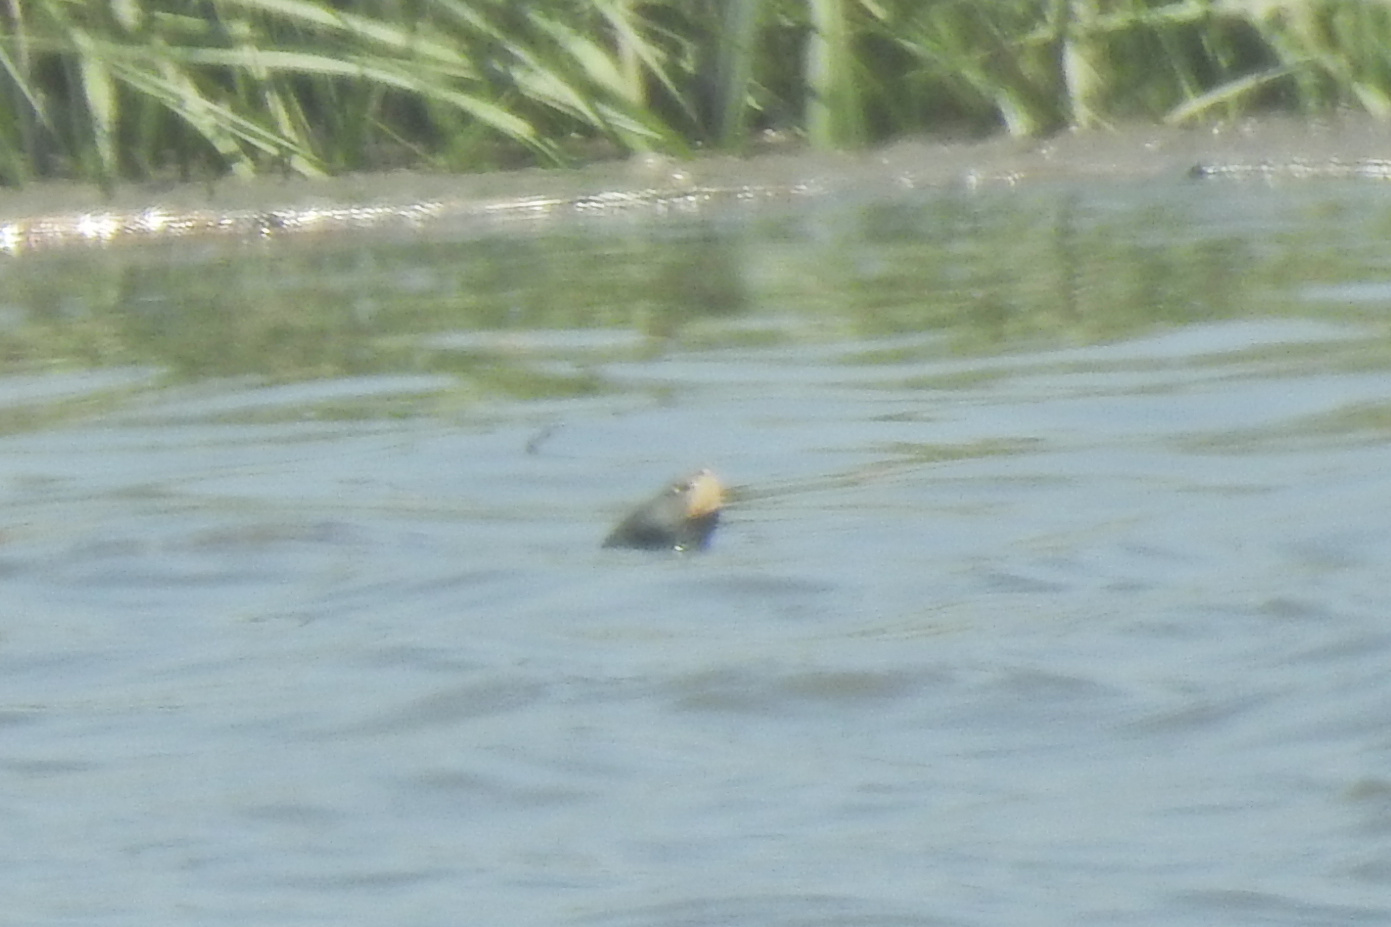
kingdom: Animalia
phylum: Chordata
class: Testudines
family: Emydidae
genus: Malaclemys
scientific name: Malaclemys terrapin
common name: Diamondback terrapin
